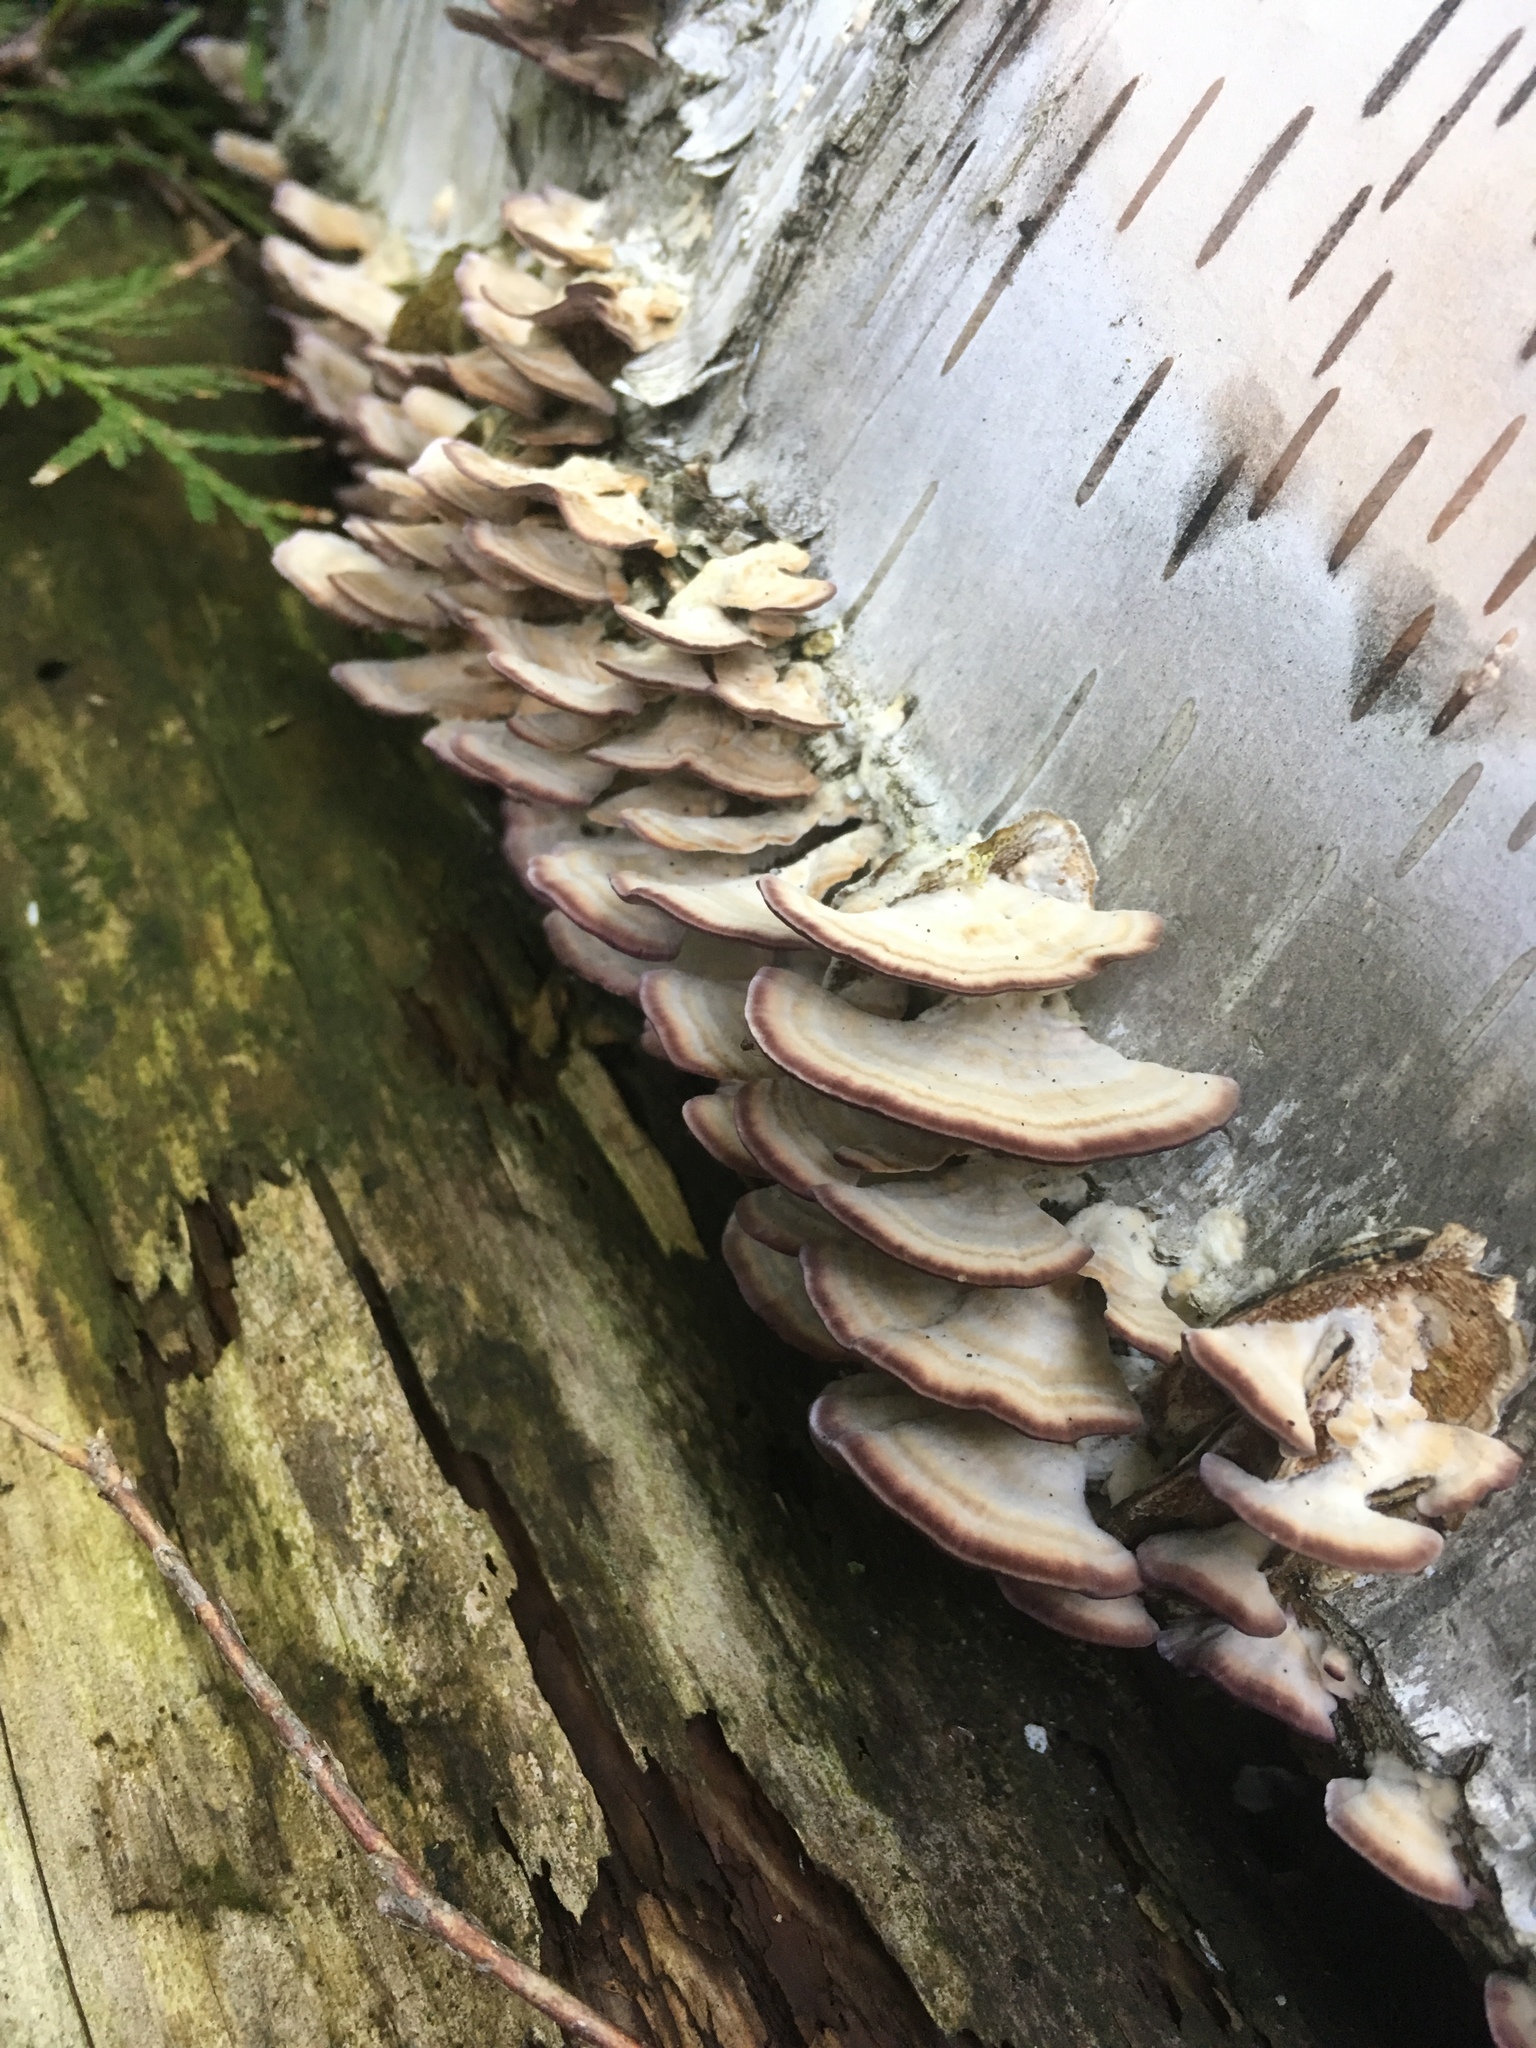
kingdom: Fungi
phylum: Basidiomycota
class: Agaricomycetes
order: Hymenochaetales
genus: Trichaptum
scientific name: Trichaptum biforme
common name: Violet-toothed polypore
